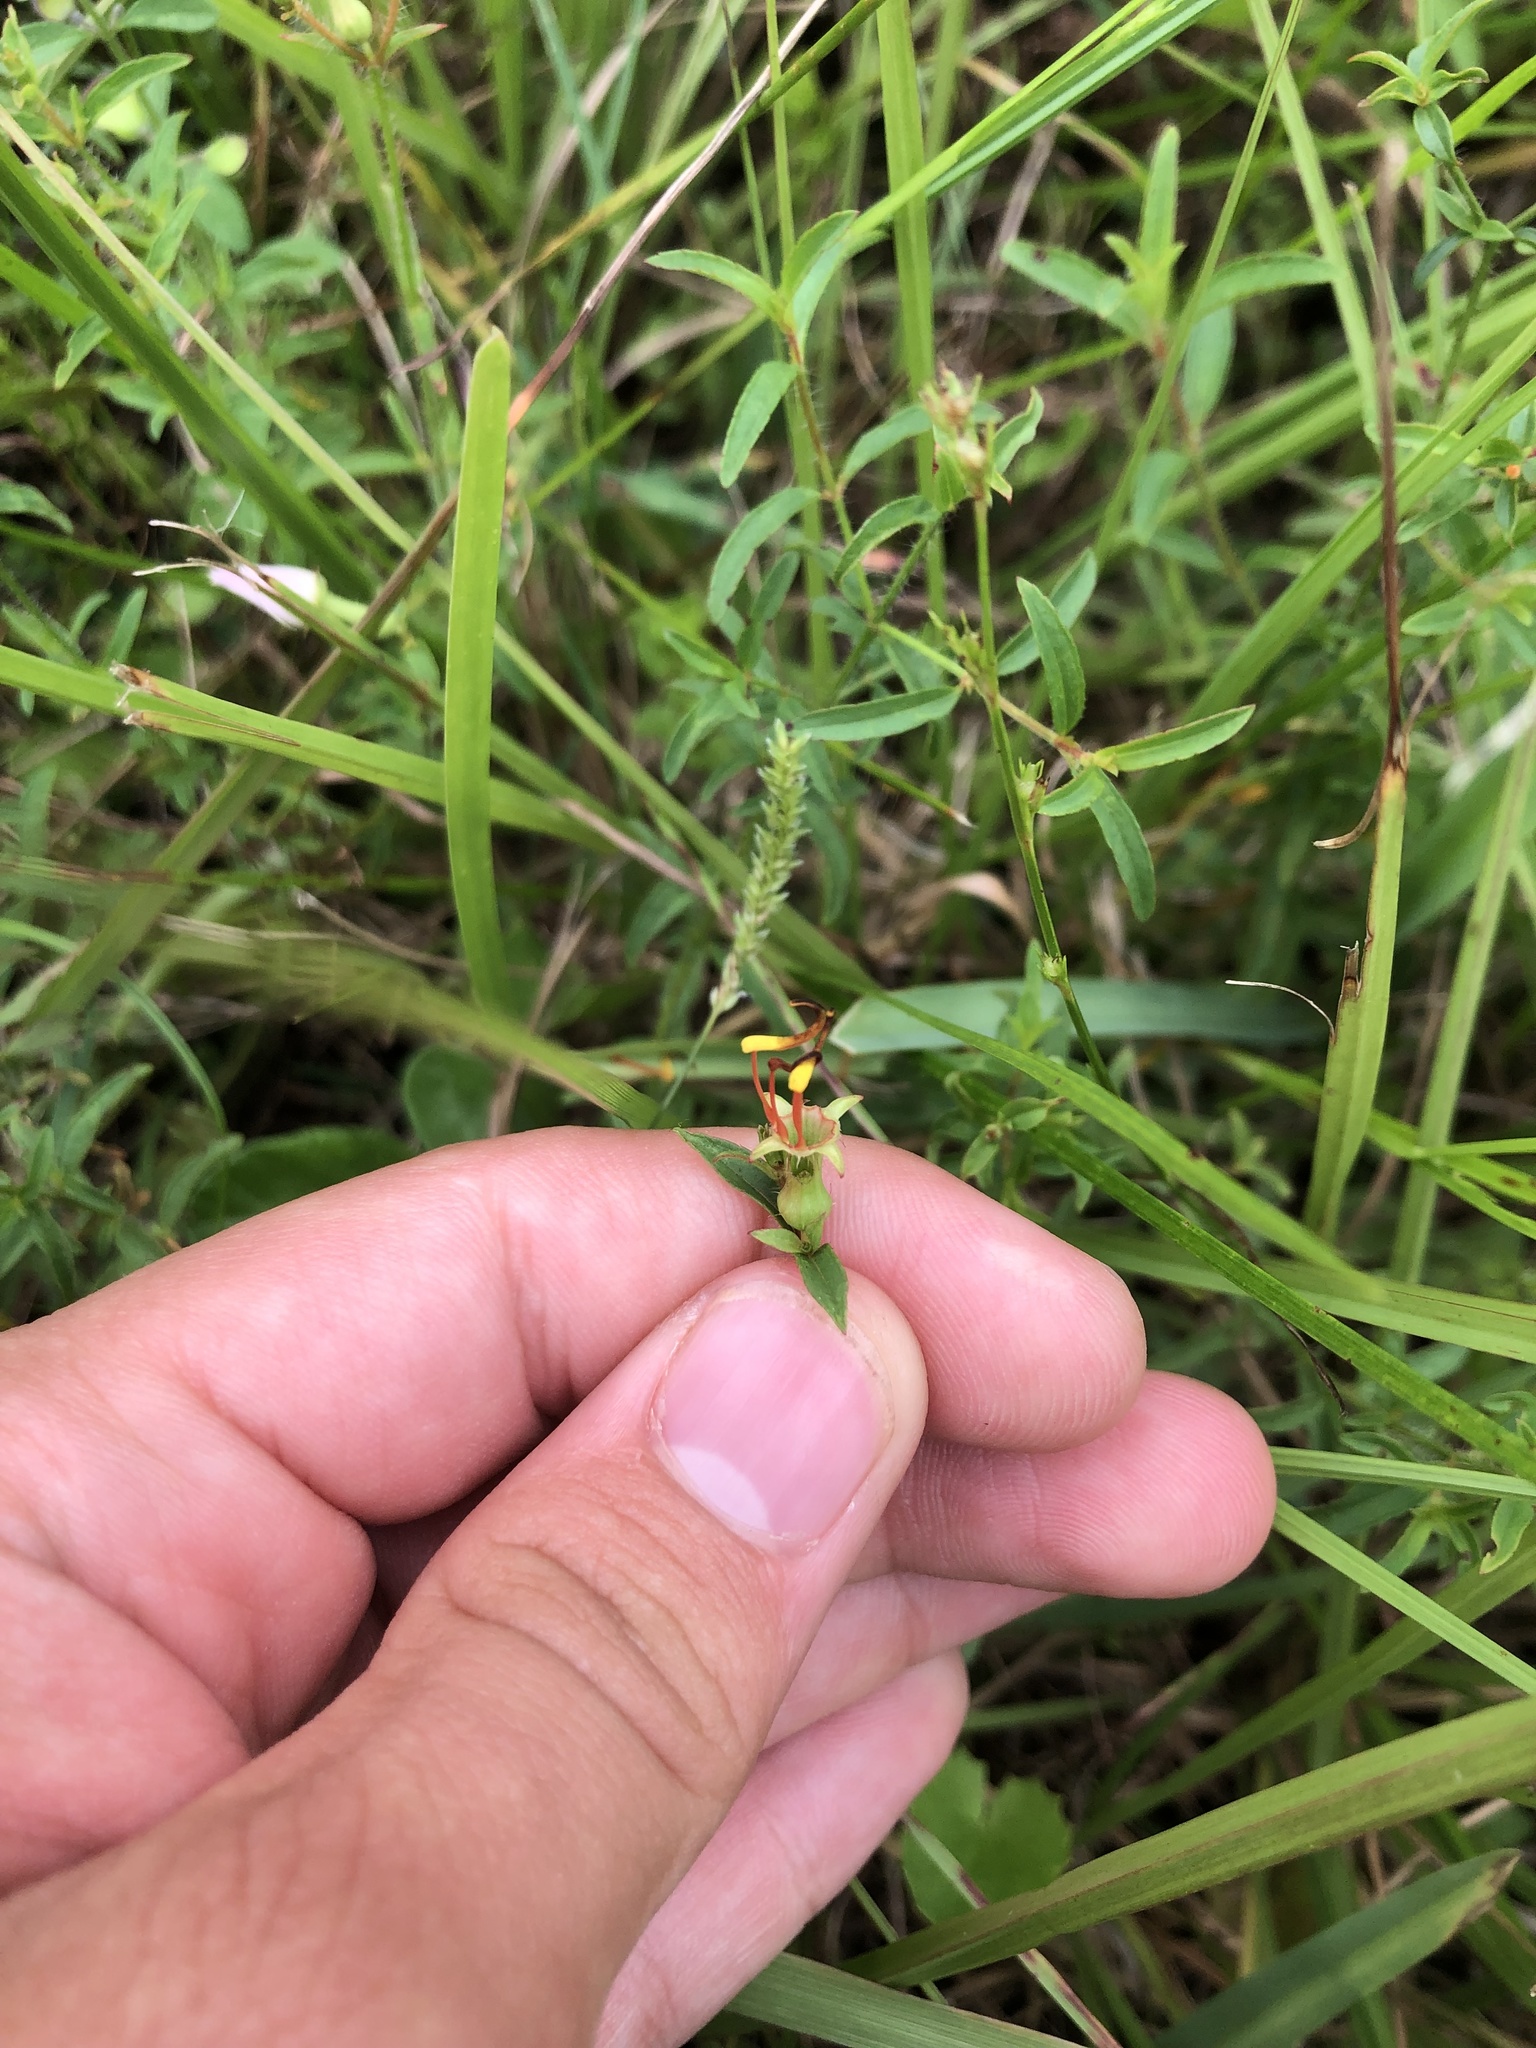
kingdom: Plantae
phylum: Tracheophyta
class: Magnoliopsida
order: Myrtales
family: Melastomataceae
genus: Rhexia
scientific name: Rhexia mariana
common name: Dull meadow-pitcher
